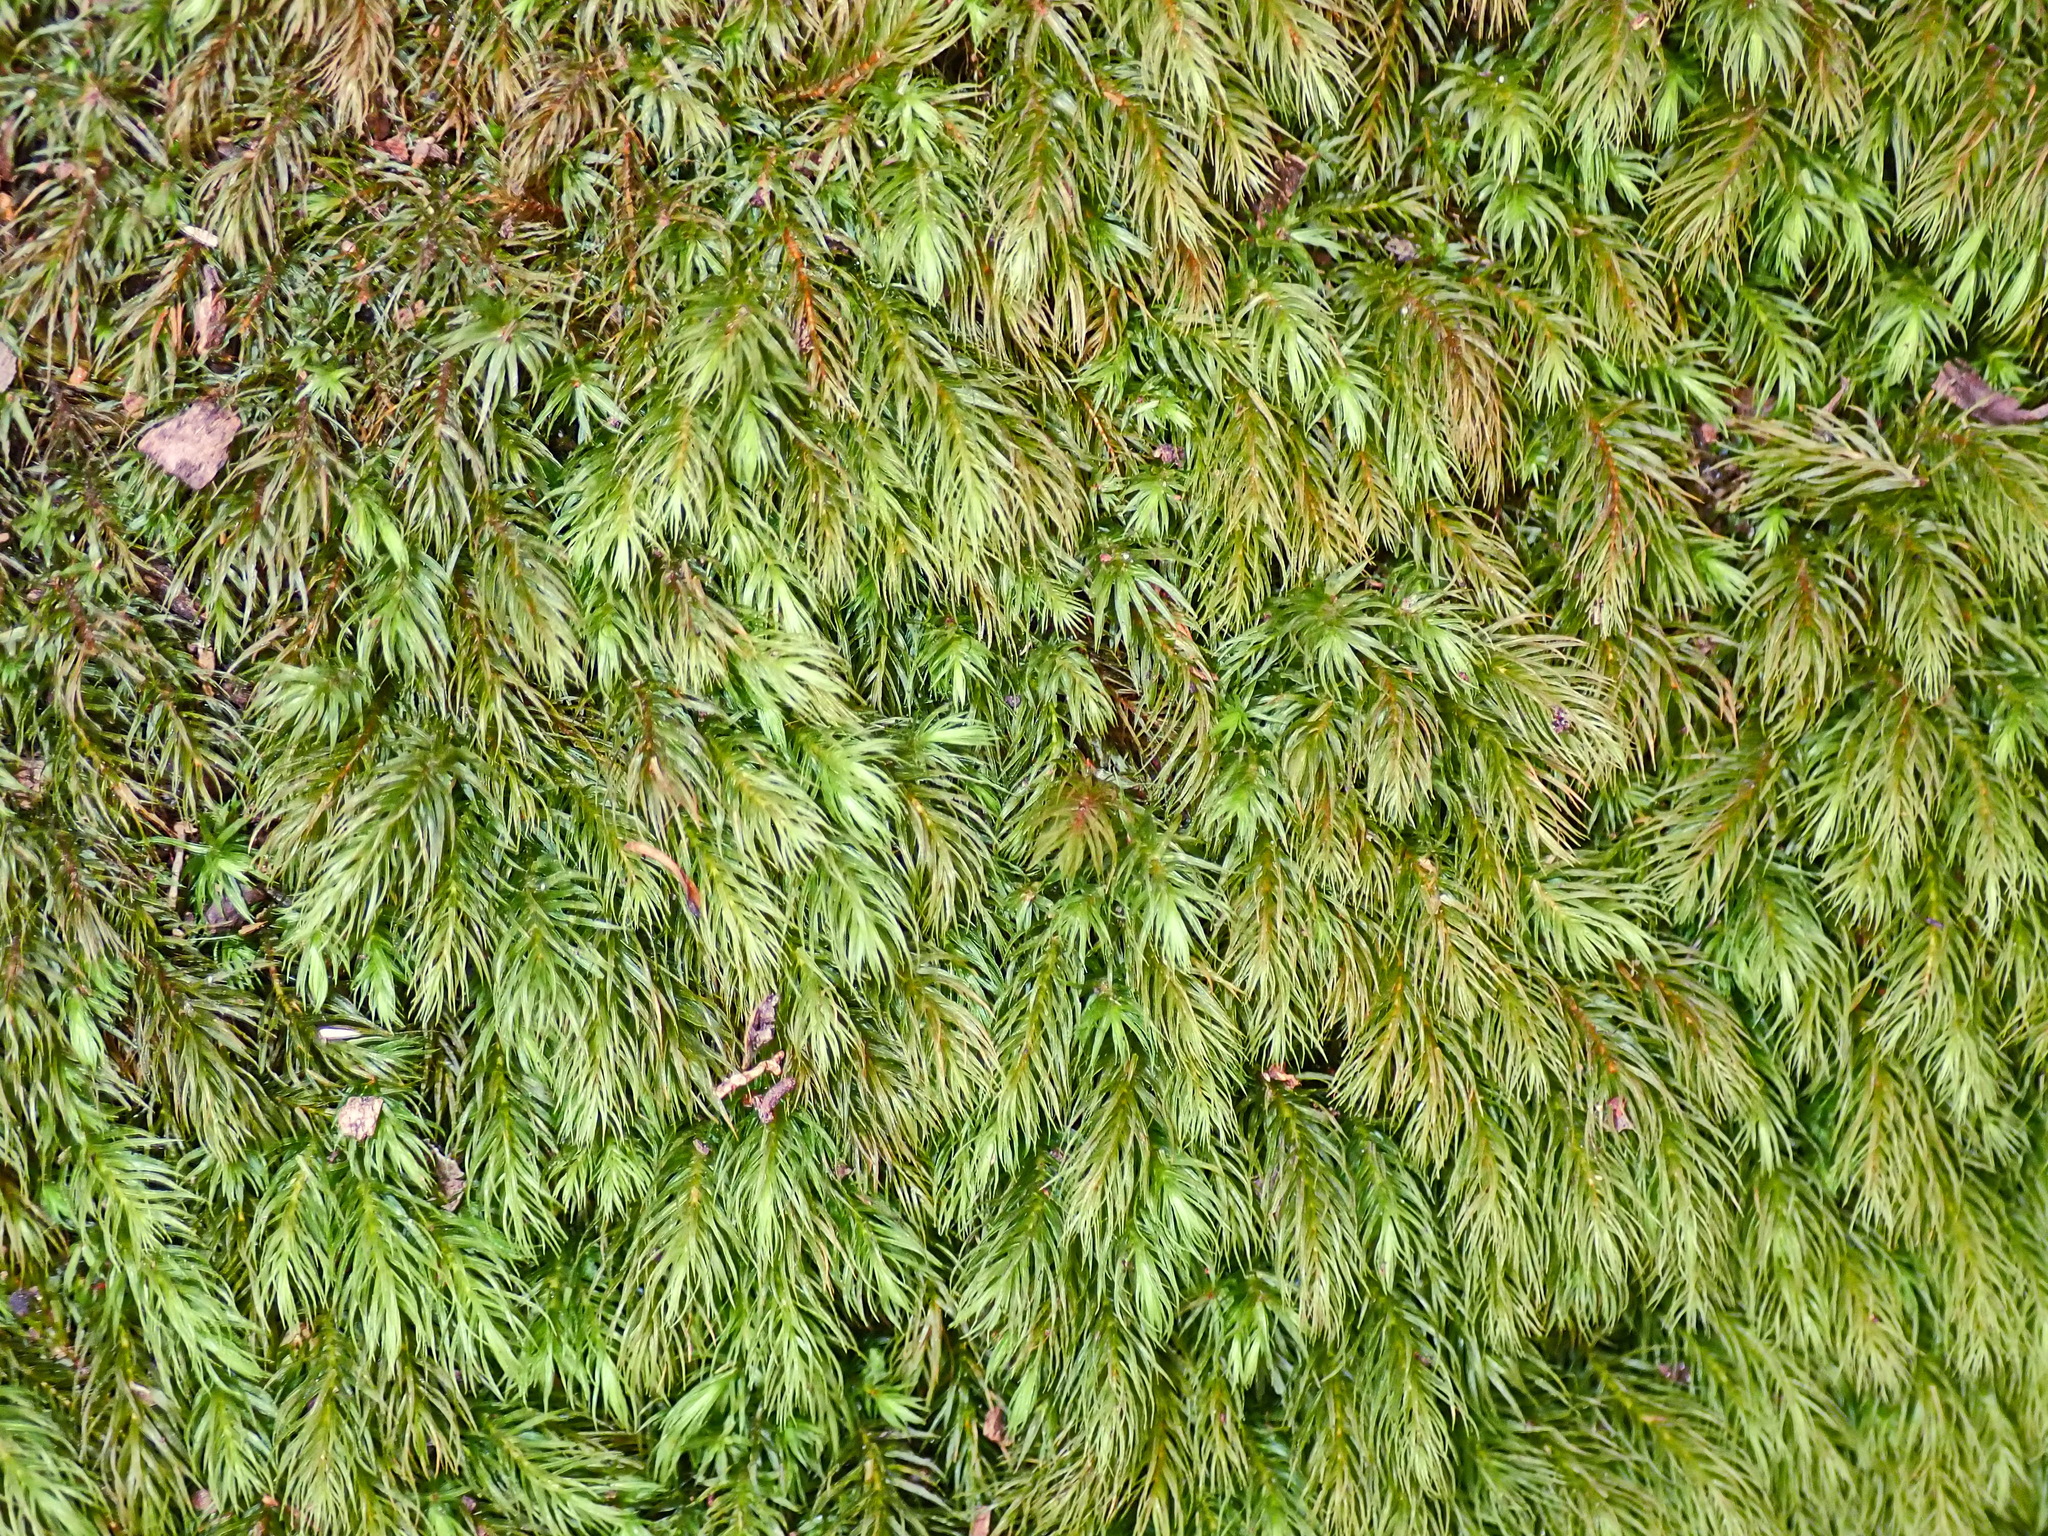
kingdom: Plantae
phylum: Bryophyta
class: Bryopsida
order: Rhizogoniales
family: Calomniaceae
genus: Pyrrhobryum
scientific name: Pyrrhobryum spiniforme
